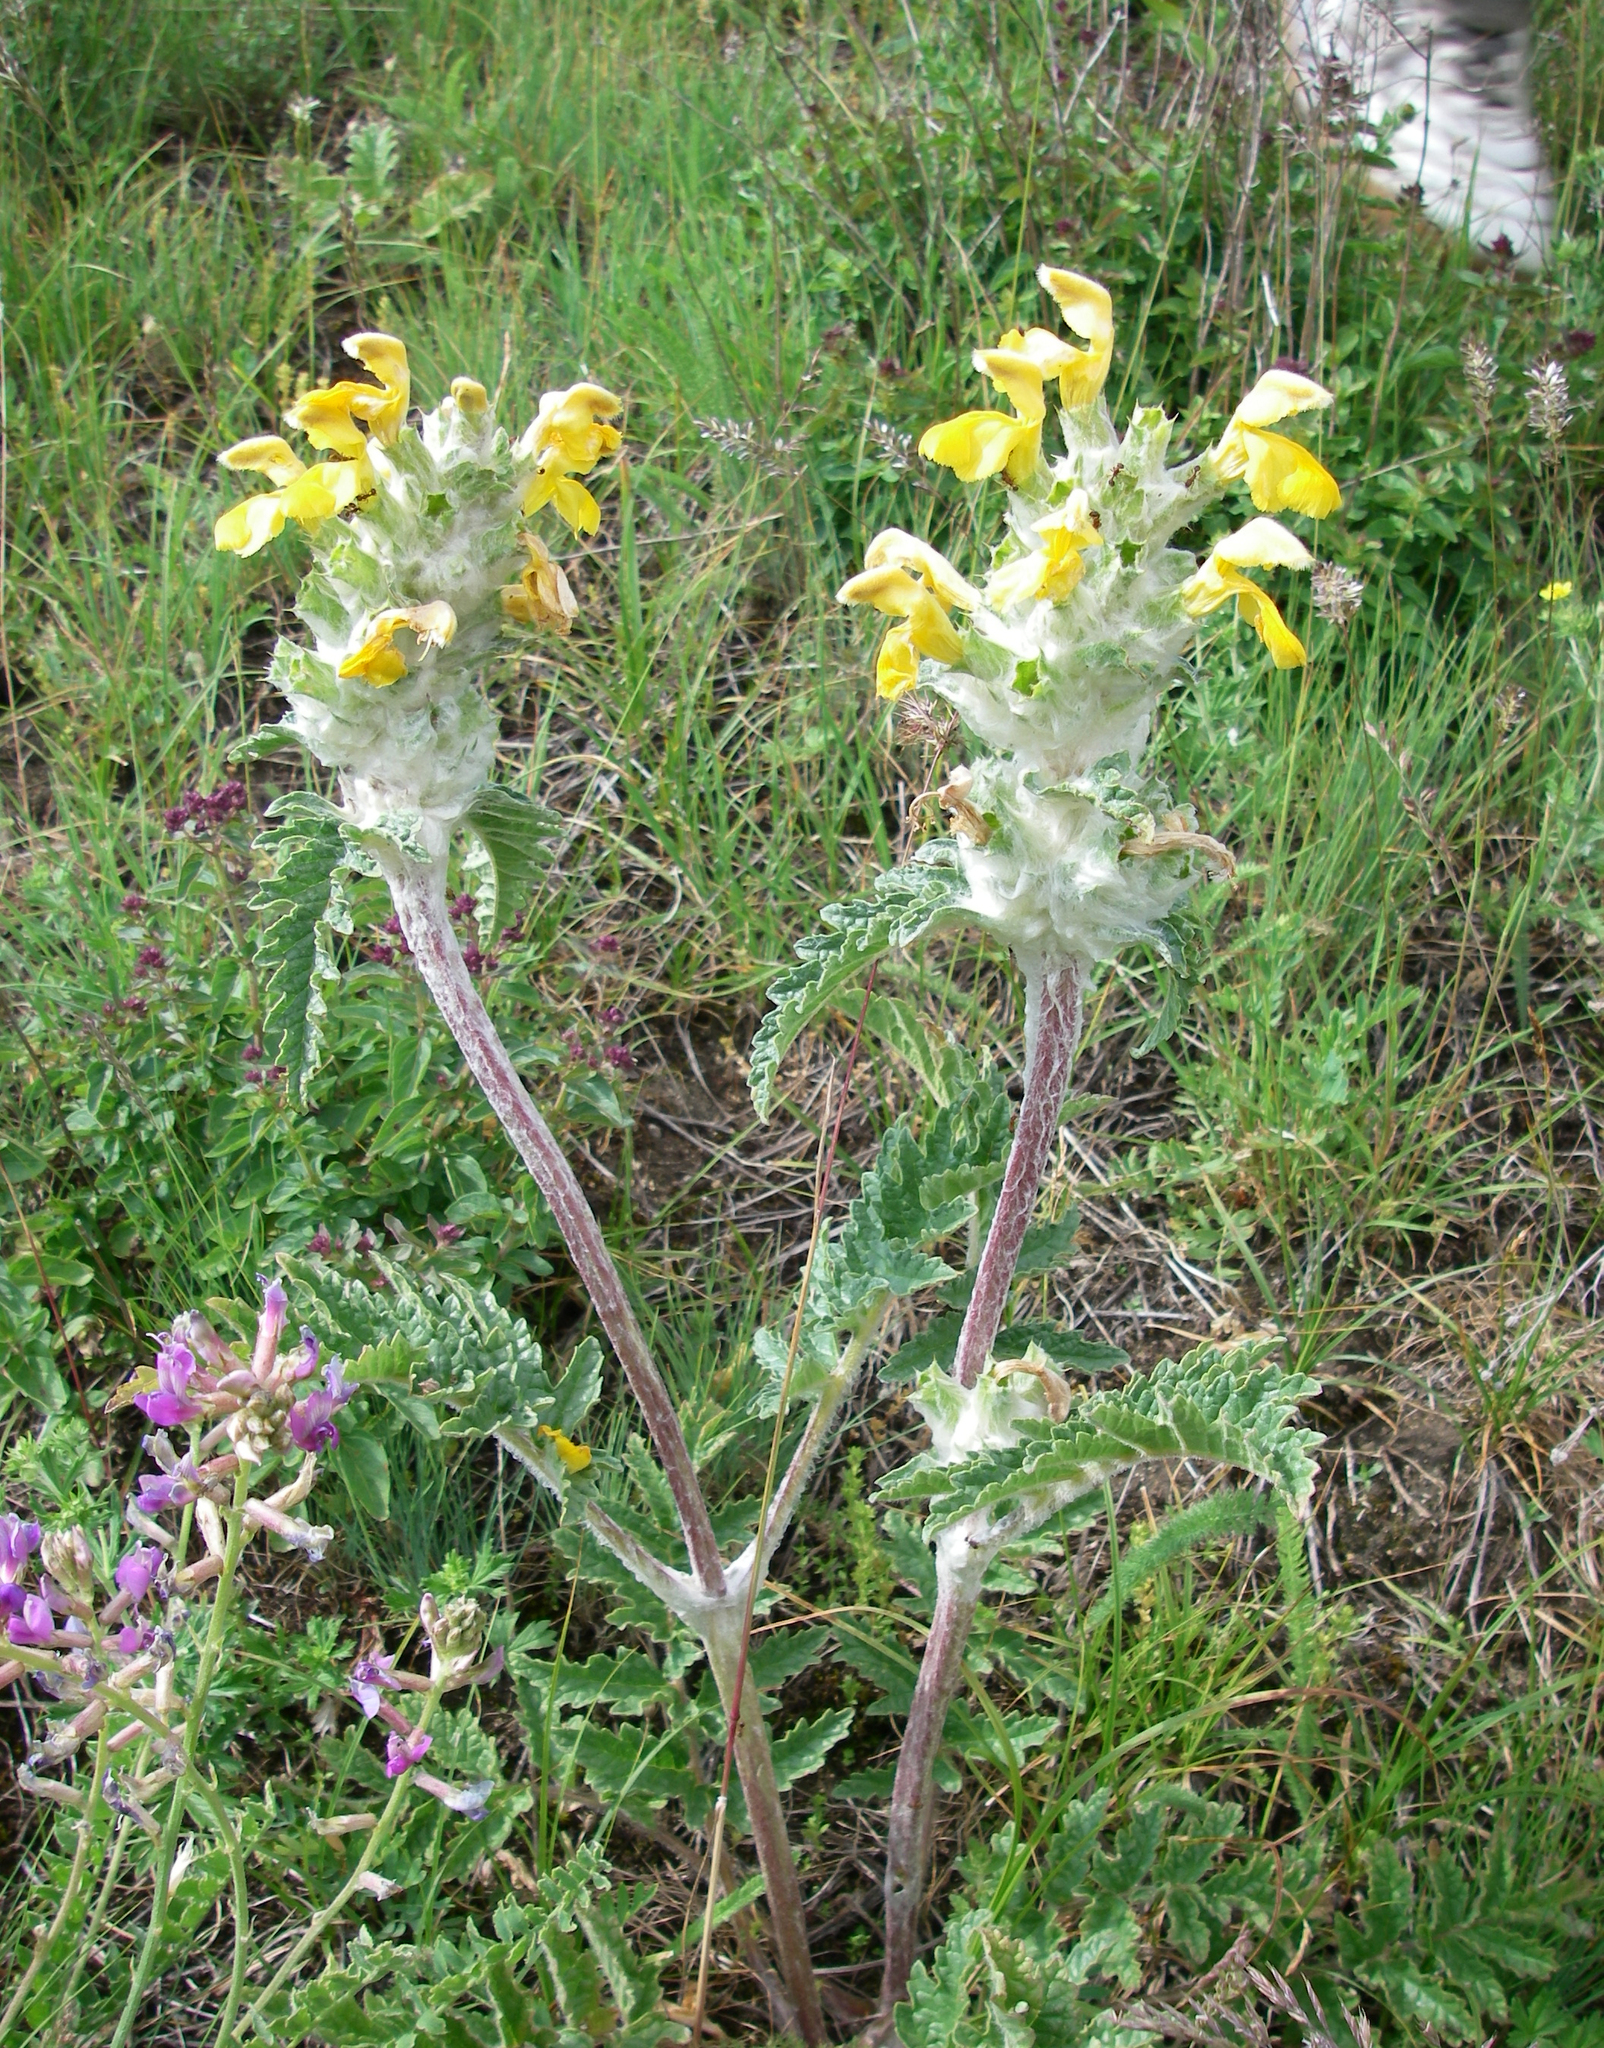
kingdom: Plantae
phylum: Tracheophyta
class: Magnoliopsida
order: Lamiales
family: Lamiaceae
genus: Phlomoides
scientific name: Phlomoides speciosa
